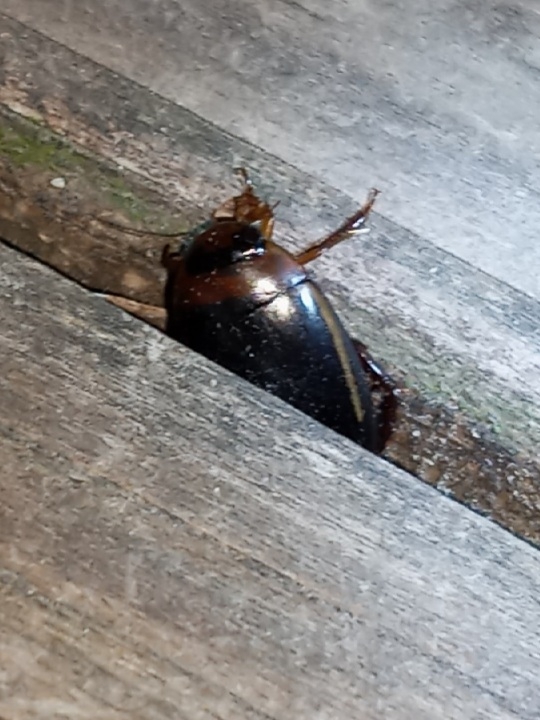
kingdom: Animalia
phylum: Arthropoda
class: Insecta
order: Coleoptera
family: Dytiscidae
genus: Hydaticus
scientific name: Hydaticus bimarginatus
